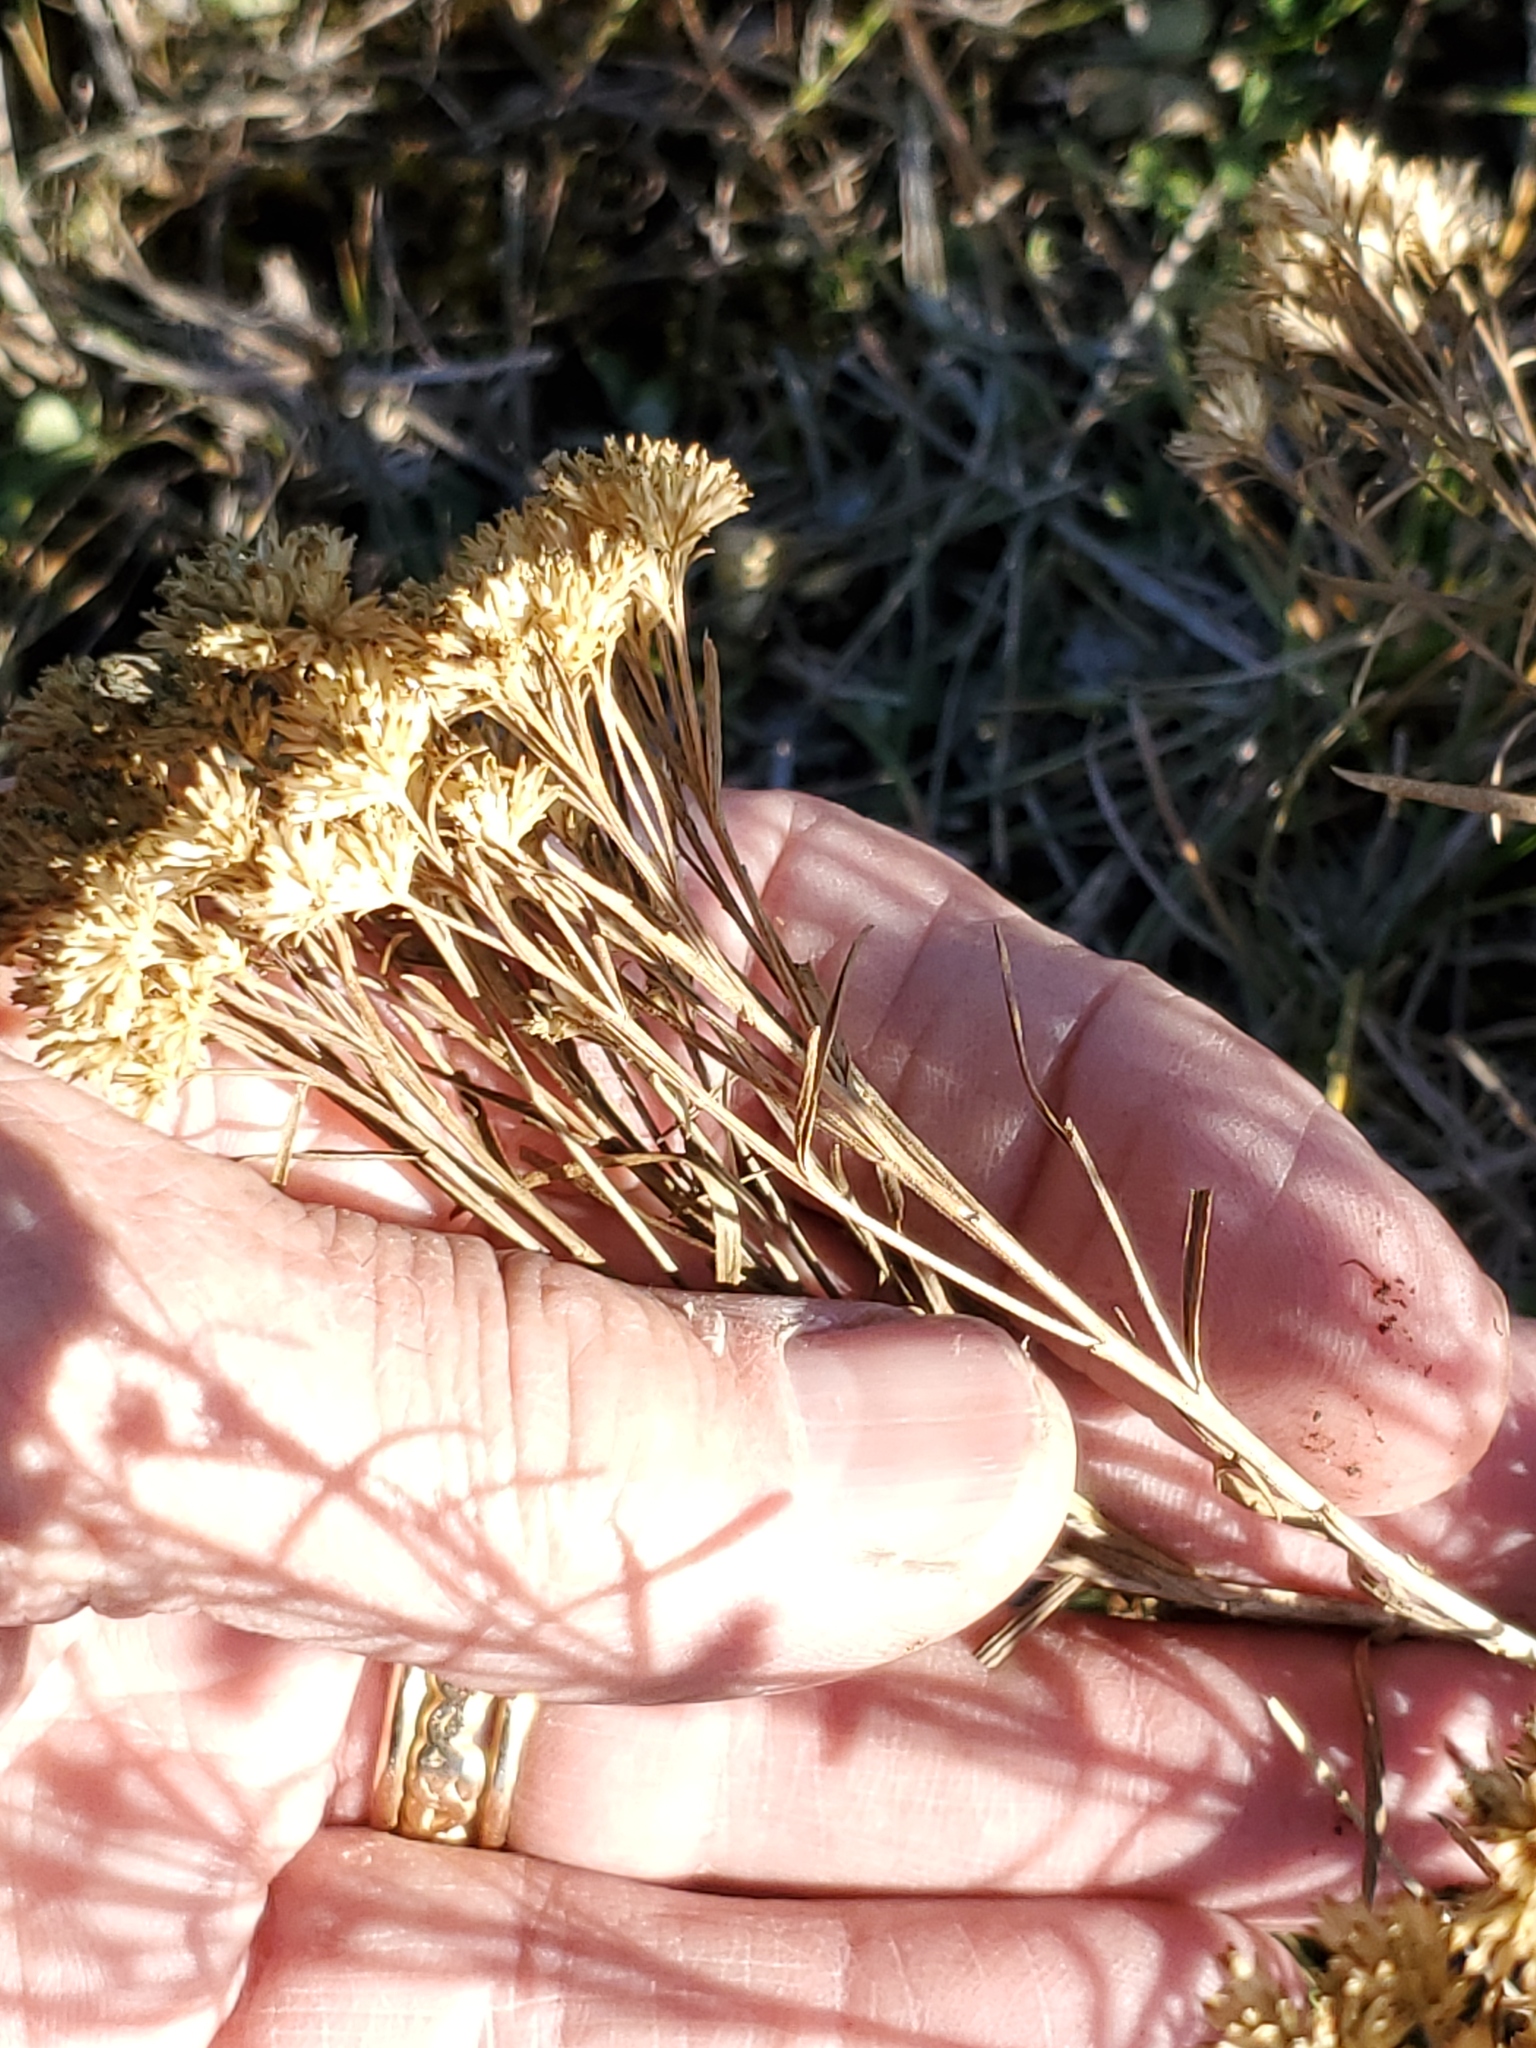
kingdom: Plantae
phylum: Tracheophyta
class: Magnoliopsida
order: Asterales
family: Asteraceae
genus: Gutierrezia
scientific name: Gutierrezia sarothrae
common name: Broom snakeweed
